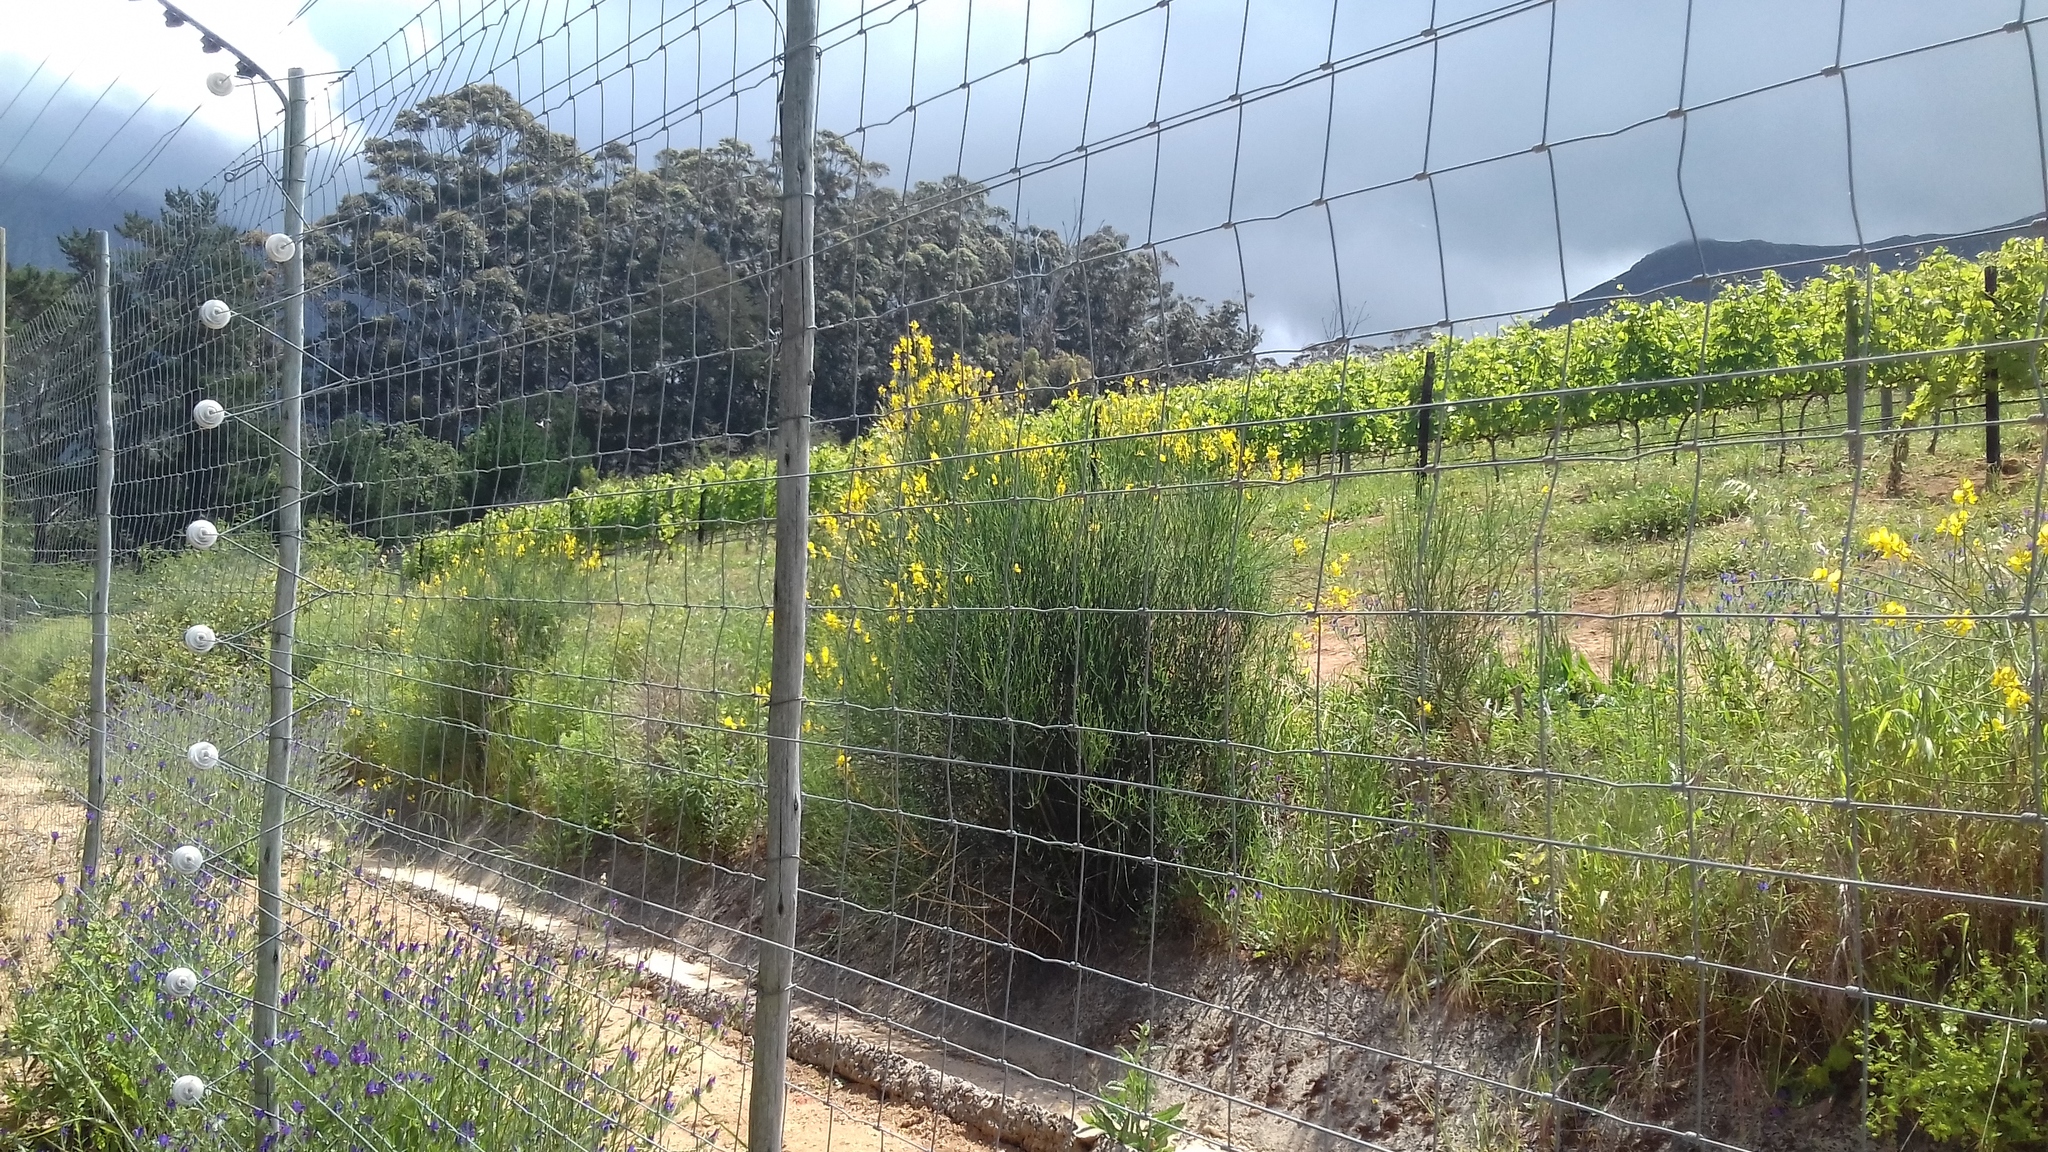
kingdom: Plantae
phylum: Tracheophyta
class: Magnoliopsida
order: Fabales
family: Fabaceae
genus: Spartium
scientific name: Spartium junceum
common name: Spanish broom
